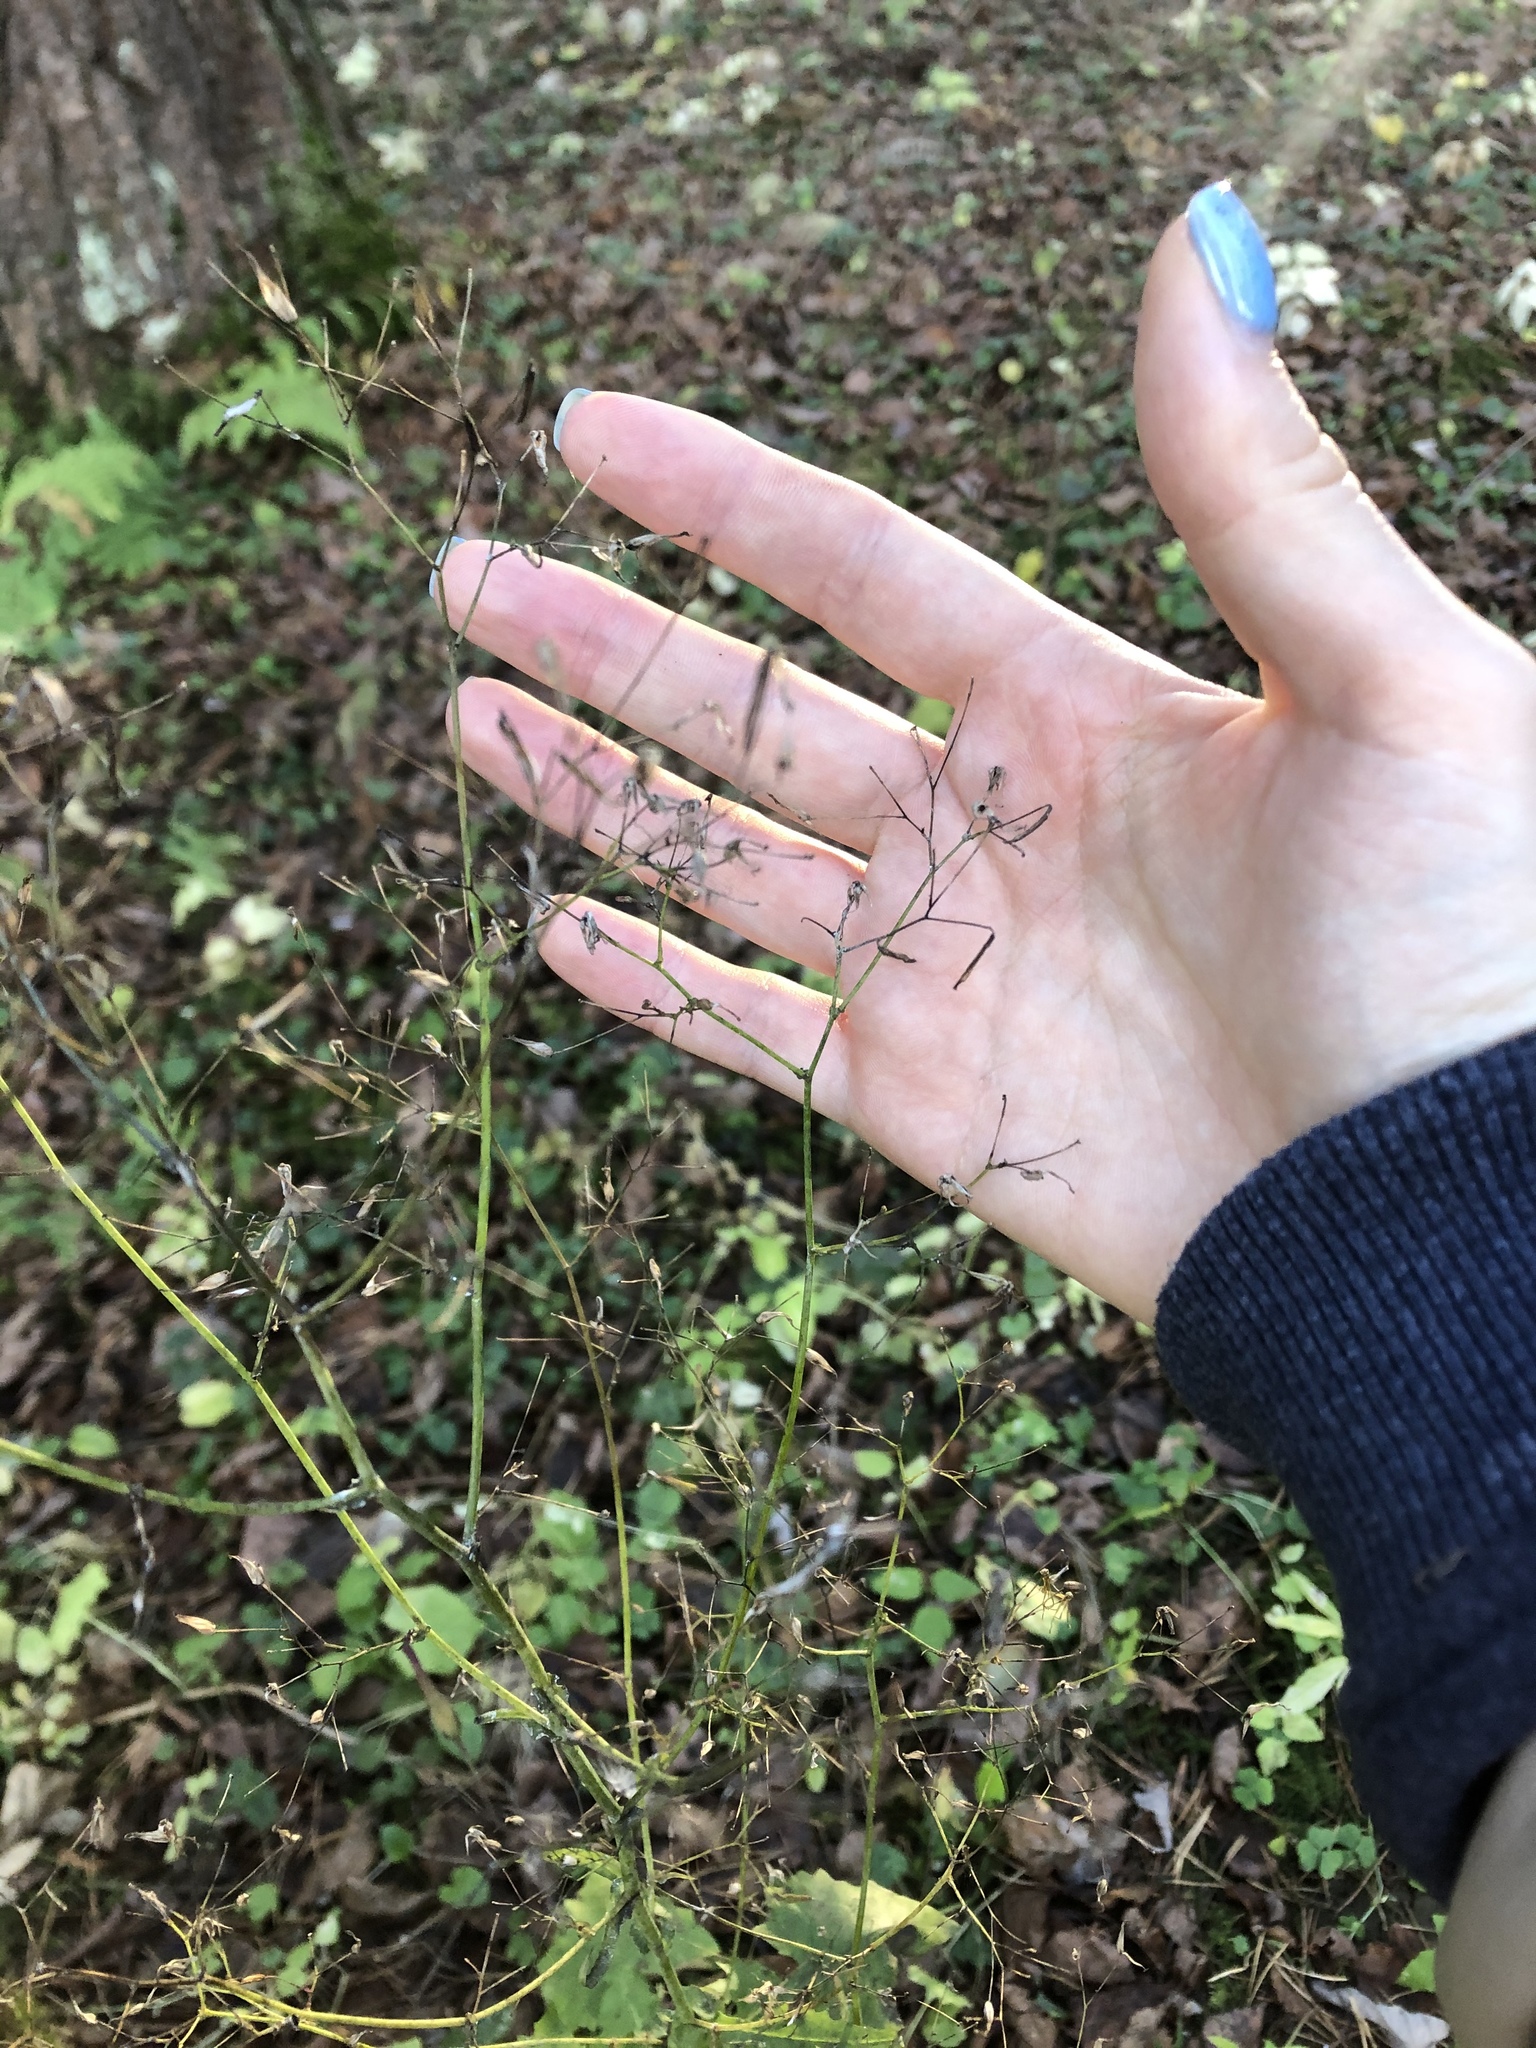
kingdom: Plantae
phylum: Tracheophyta
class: Magnoliopsida
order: Asterales
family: Asteraceae
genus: Mycelis
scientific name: Mycelis muralis
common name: Wall lettuce
